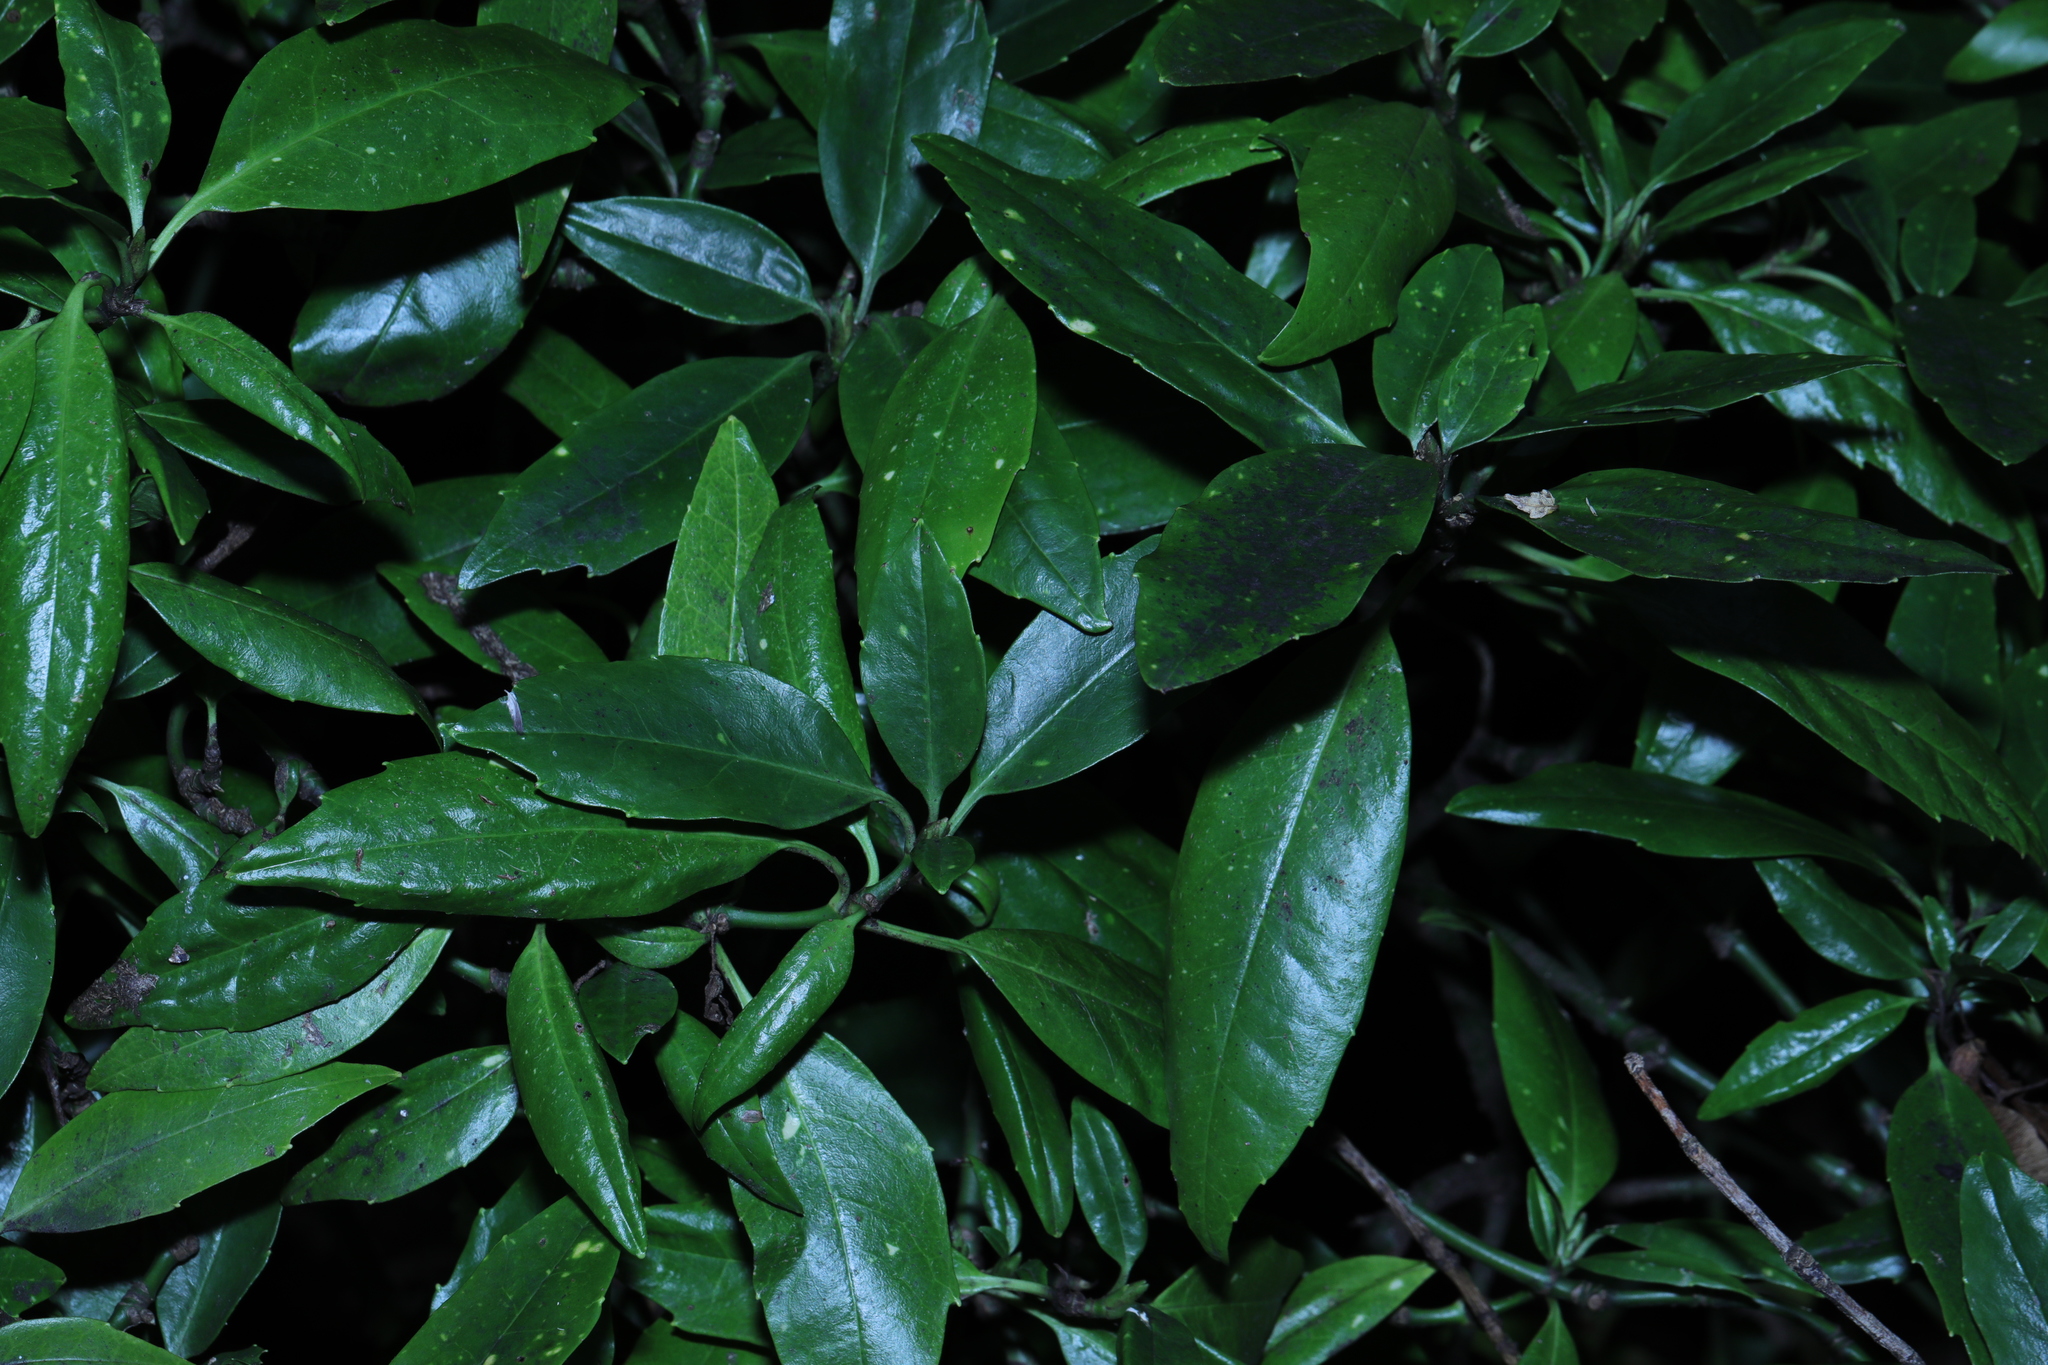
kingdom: Plantae
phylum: Tracheophyta
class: Magnoliopsida
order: Garryales
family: Garryaceae
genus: Aucuba
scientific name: Aucuba japonica
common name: Spotted-laurel
